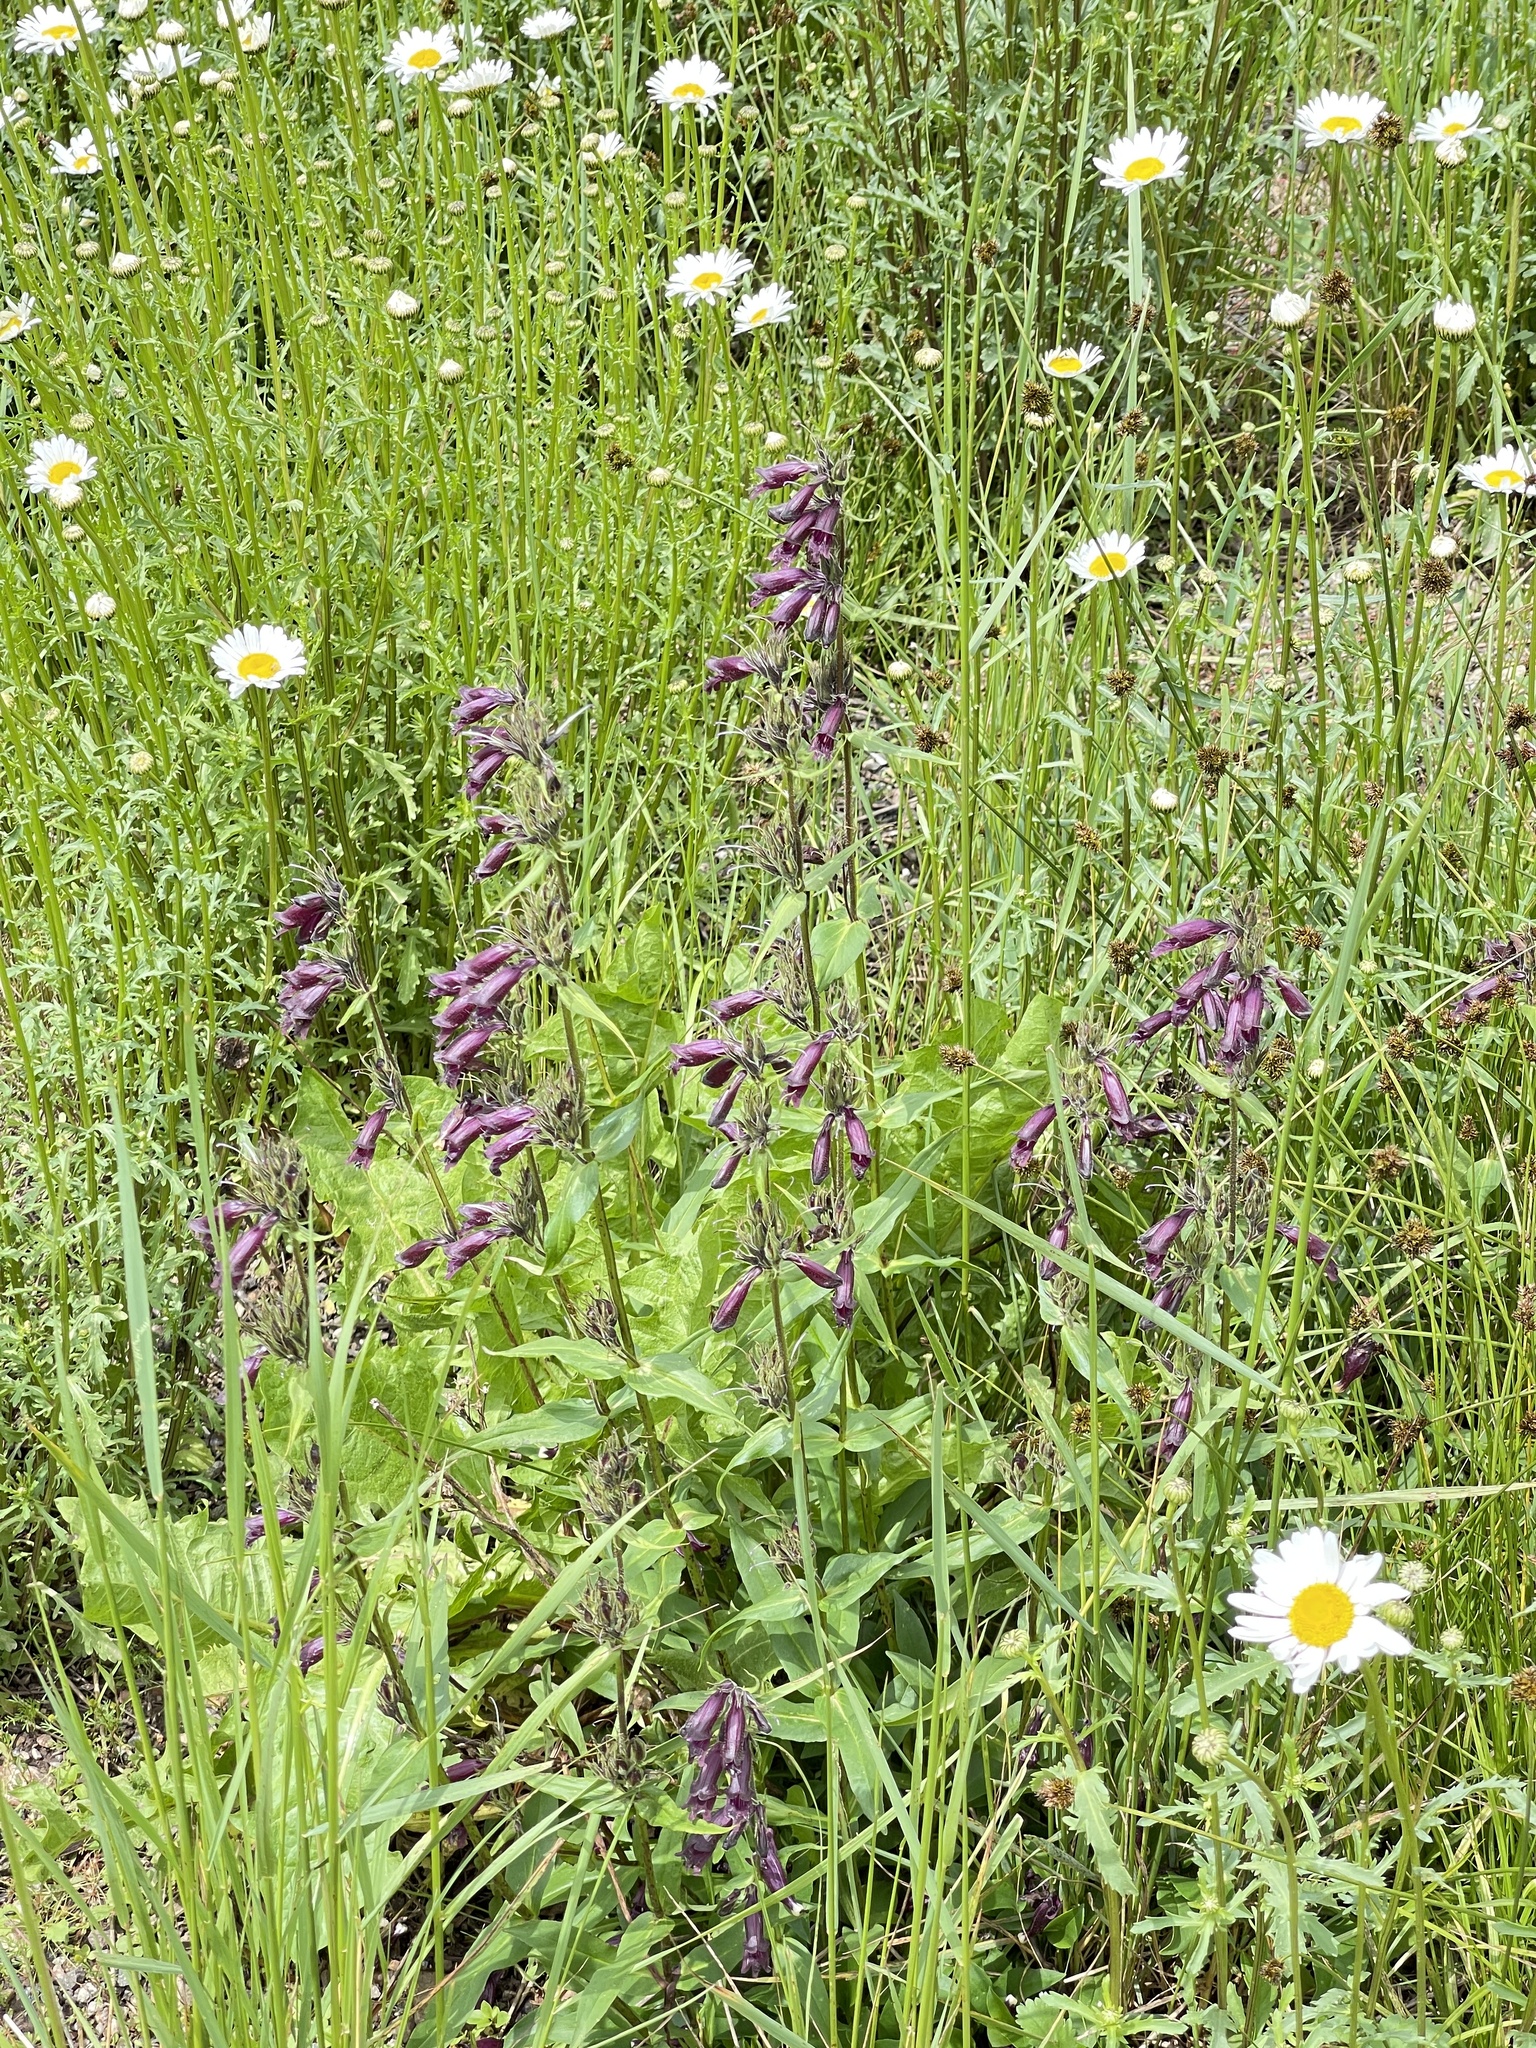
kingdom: Plantae
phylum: Tracheophyta
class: Magnoliopsida
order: Lamiales
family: Plantaginaceae
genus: Penstemon
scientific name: Penstemon whippleanus
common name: Whipple's penstemon
